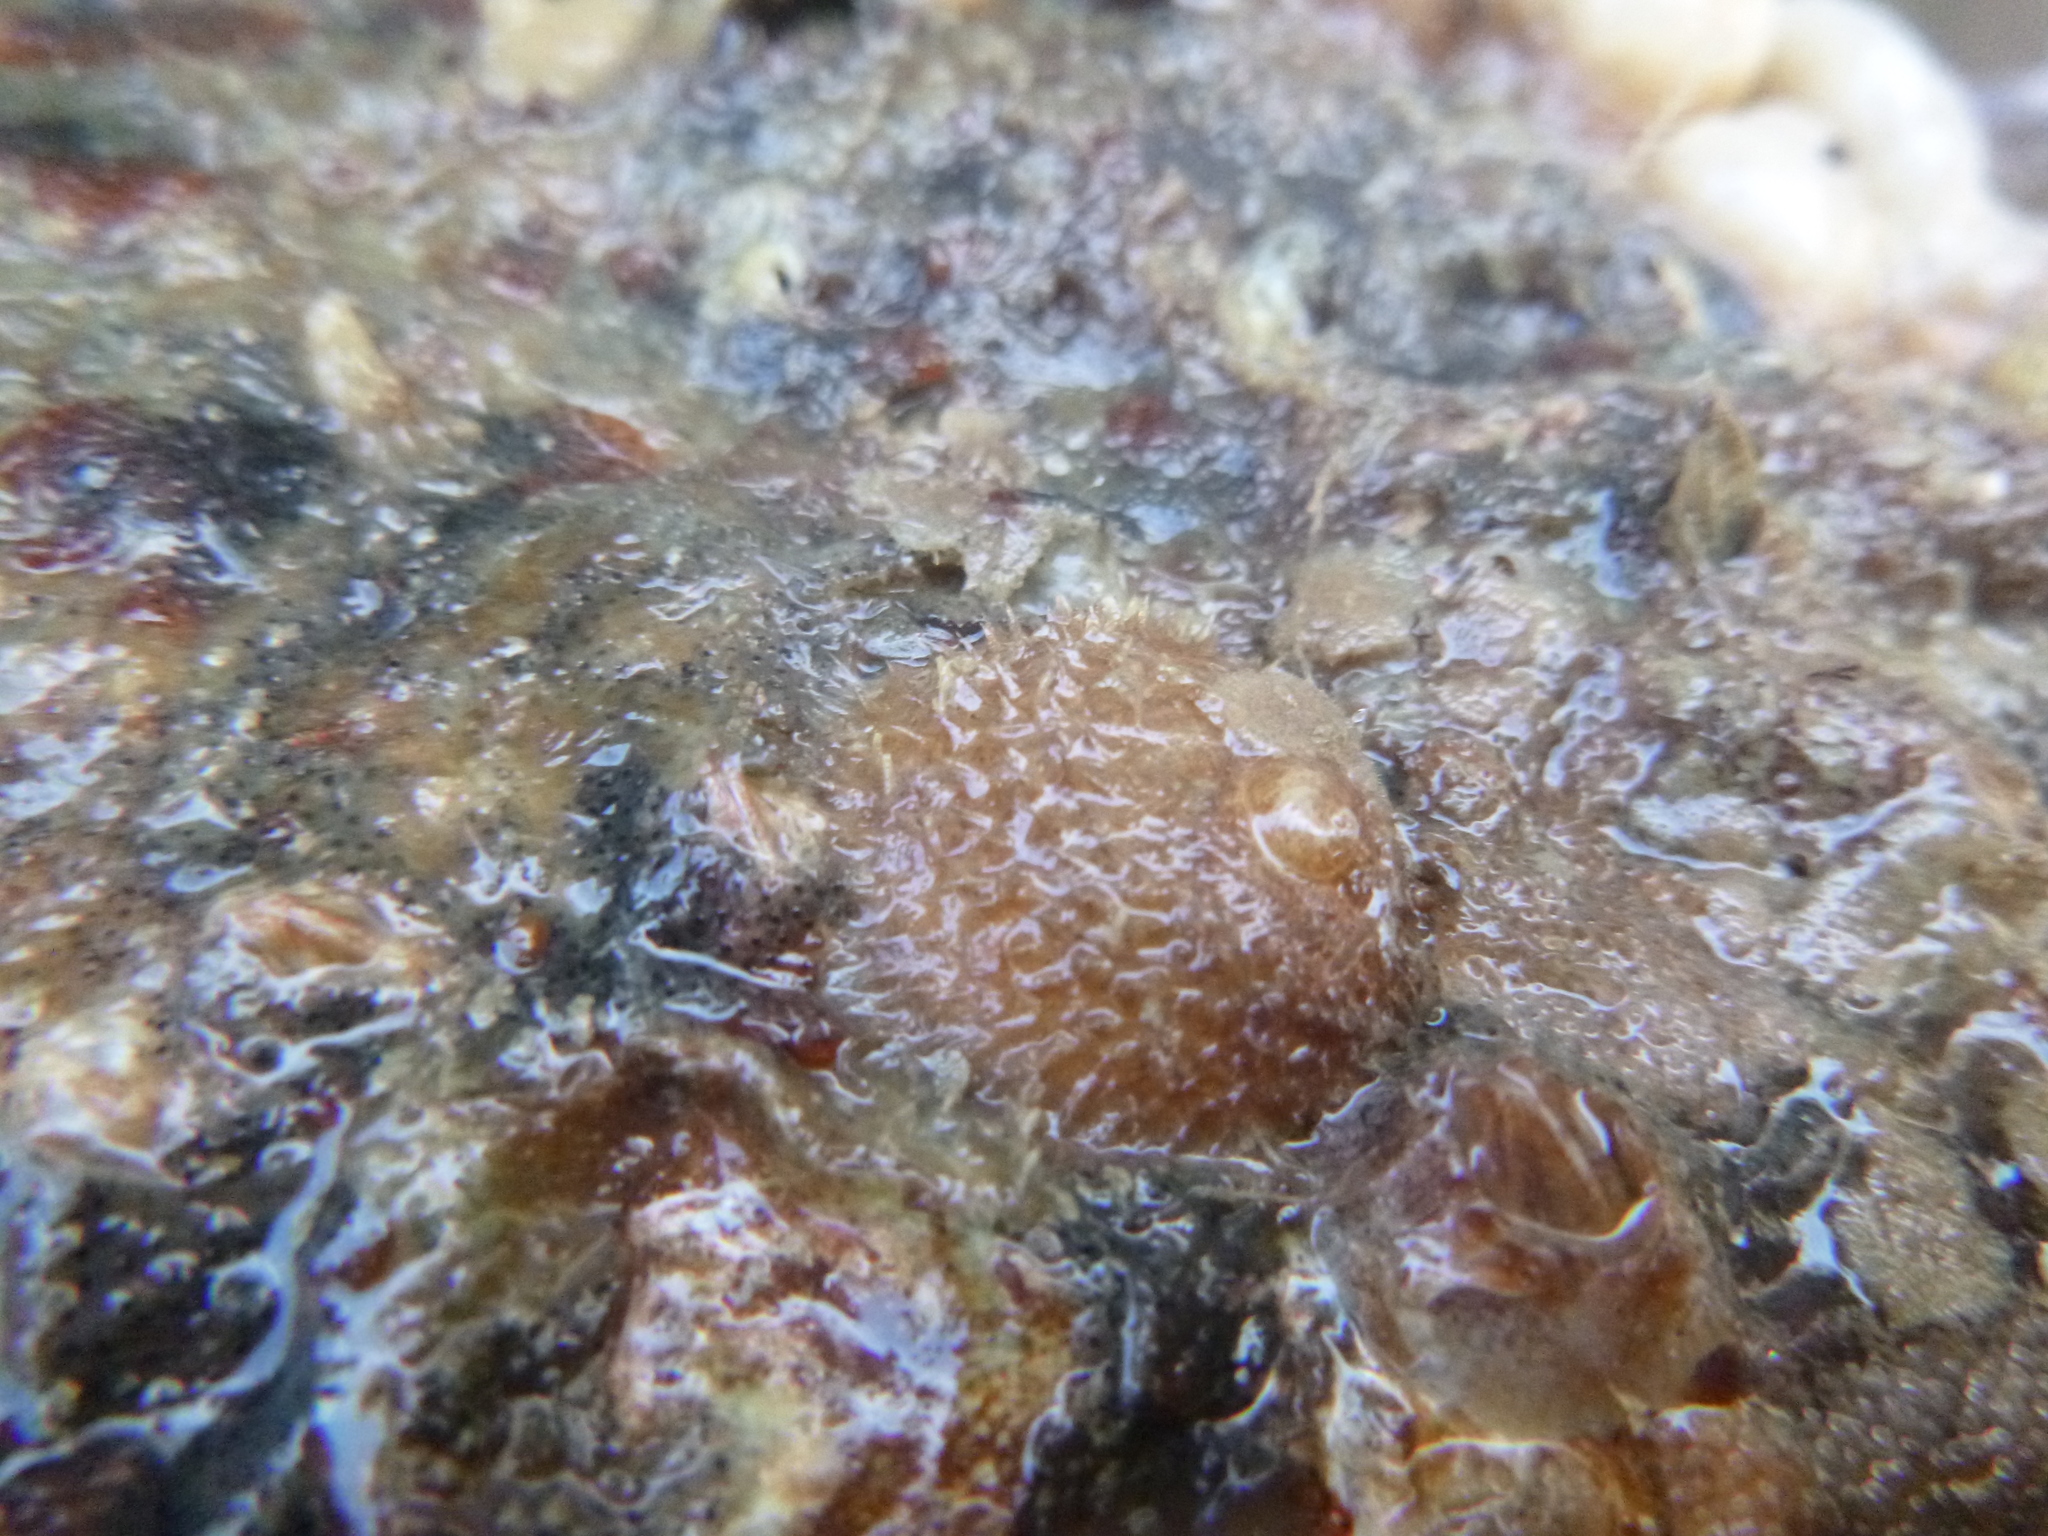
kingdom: Animalia
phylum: Mollusca
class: Gastropoda
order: Littorinimorpha
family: Calyptraeidae
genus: Sigapatella
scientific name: Sigapatella novaezelandiae
